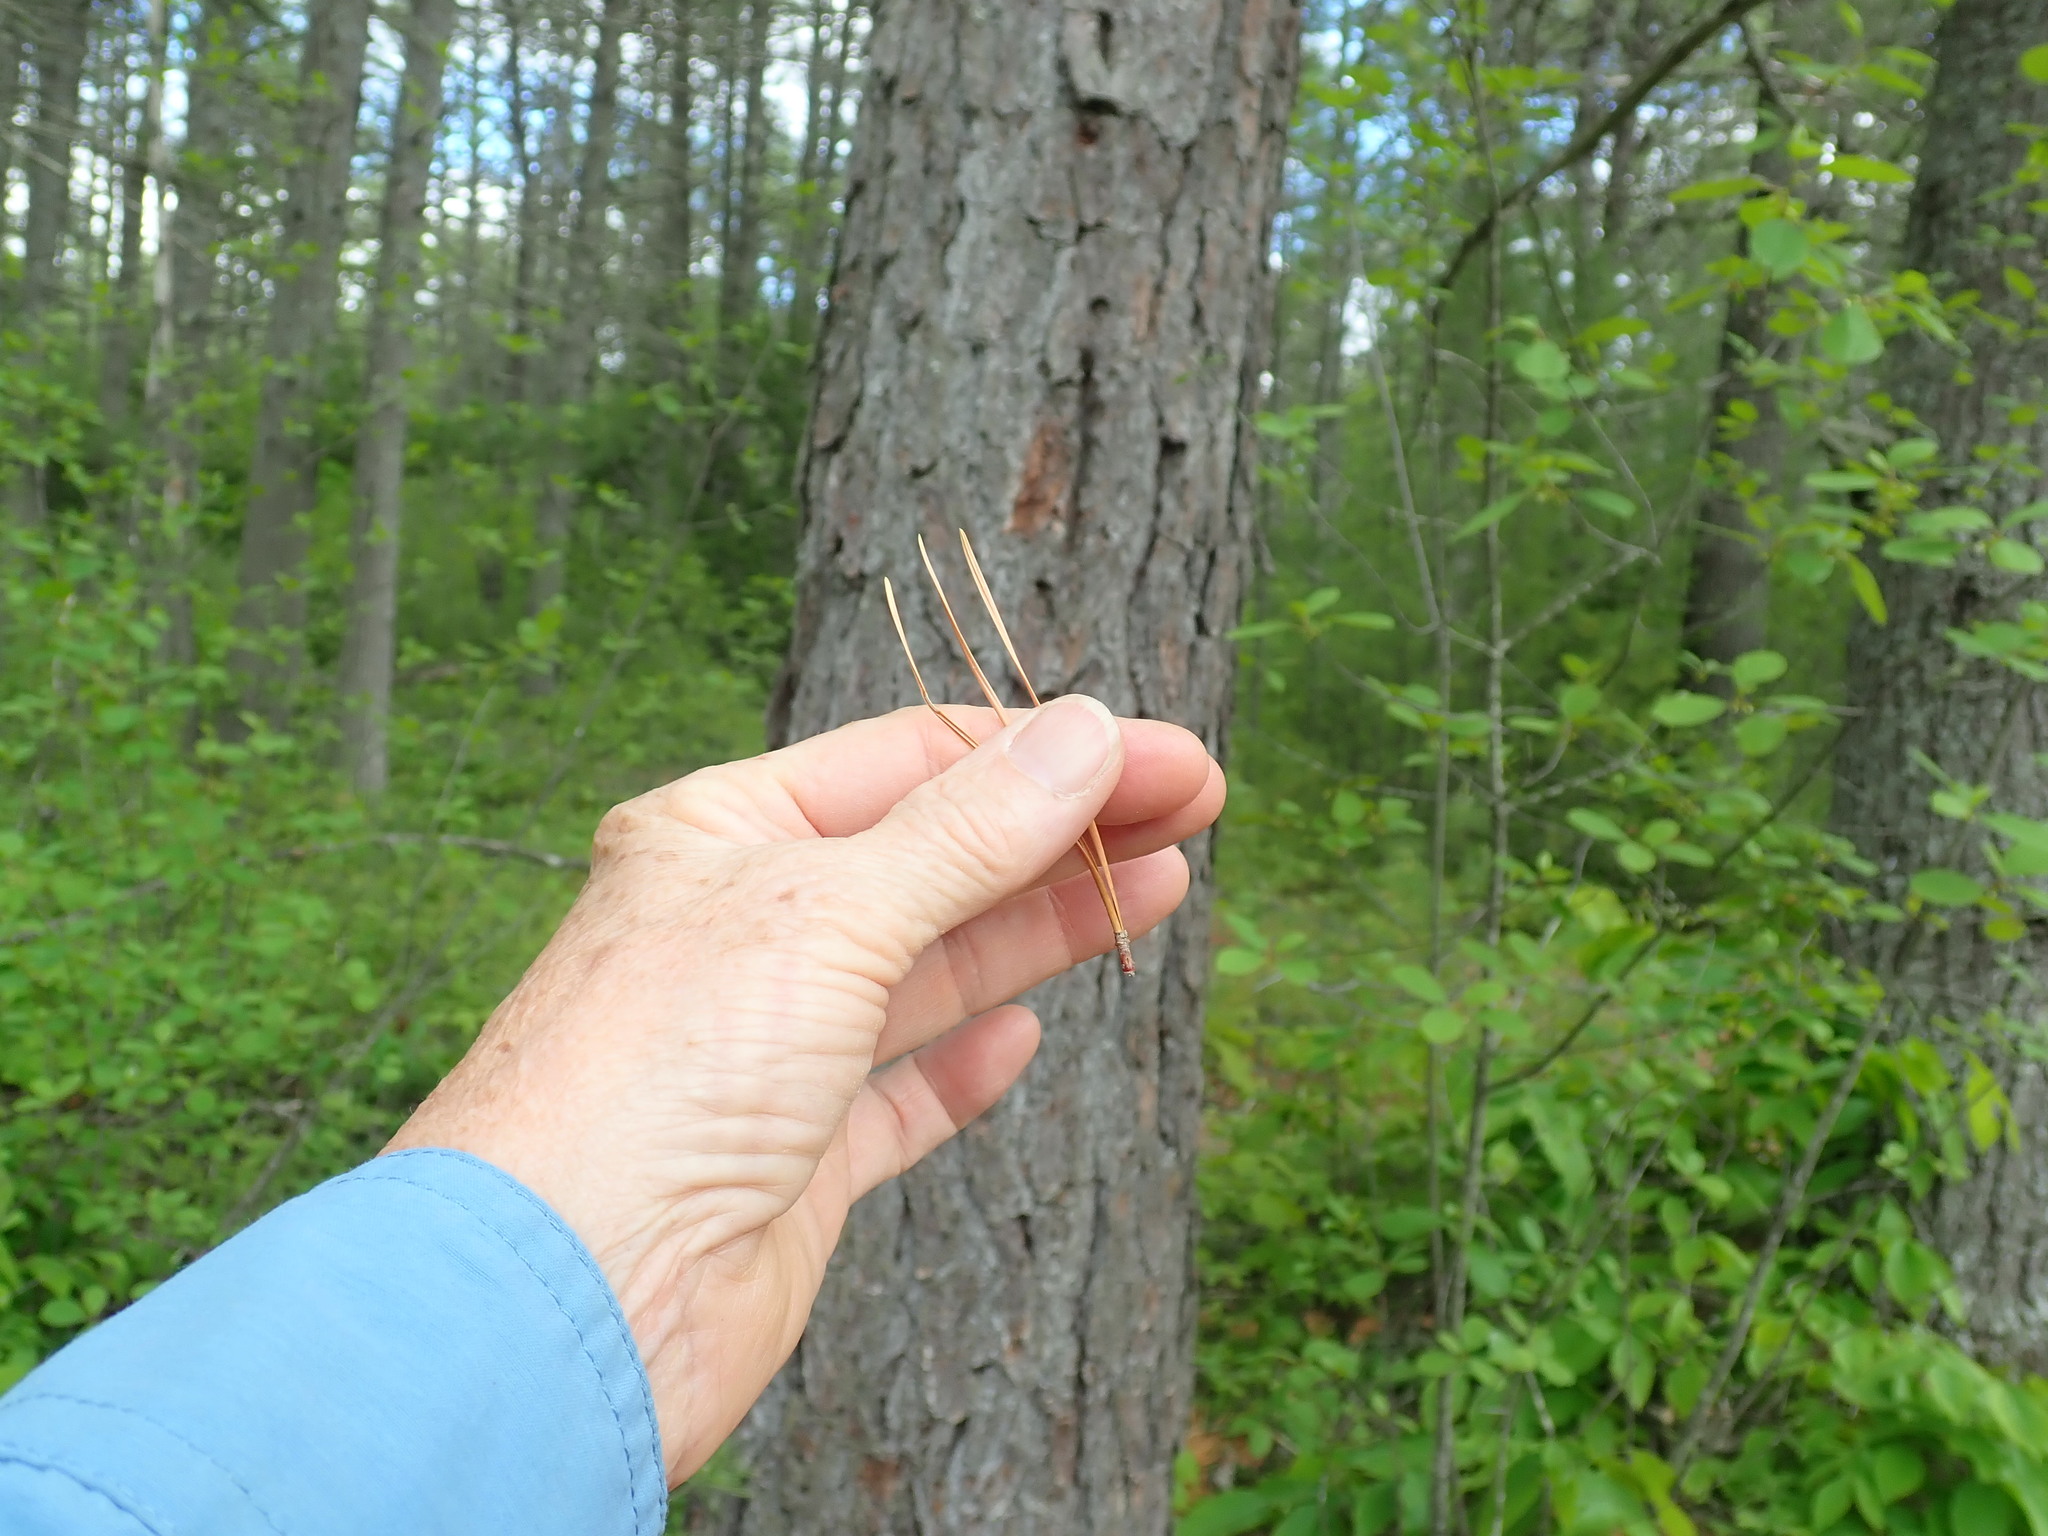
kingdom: Plantae
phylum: Tracheophyta
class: Pinopsida
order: Pinales
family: Pinaceae
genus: Pinus
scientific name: Pinus rigida
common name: Pitch pine
